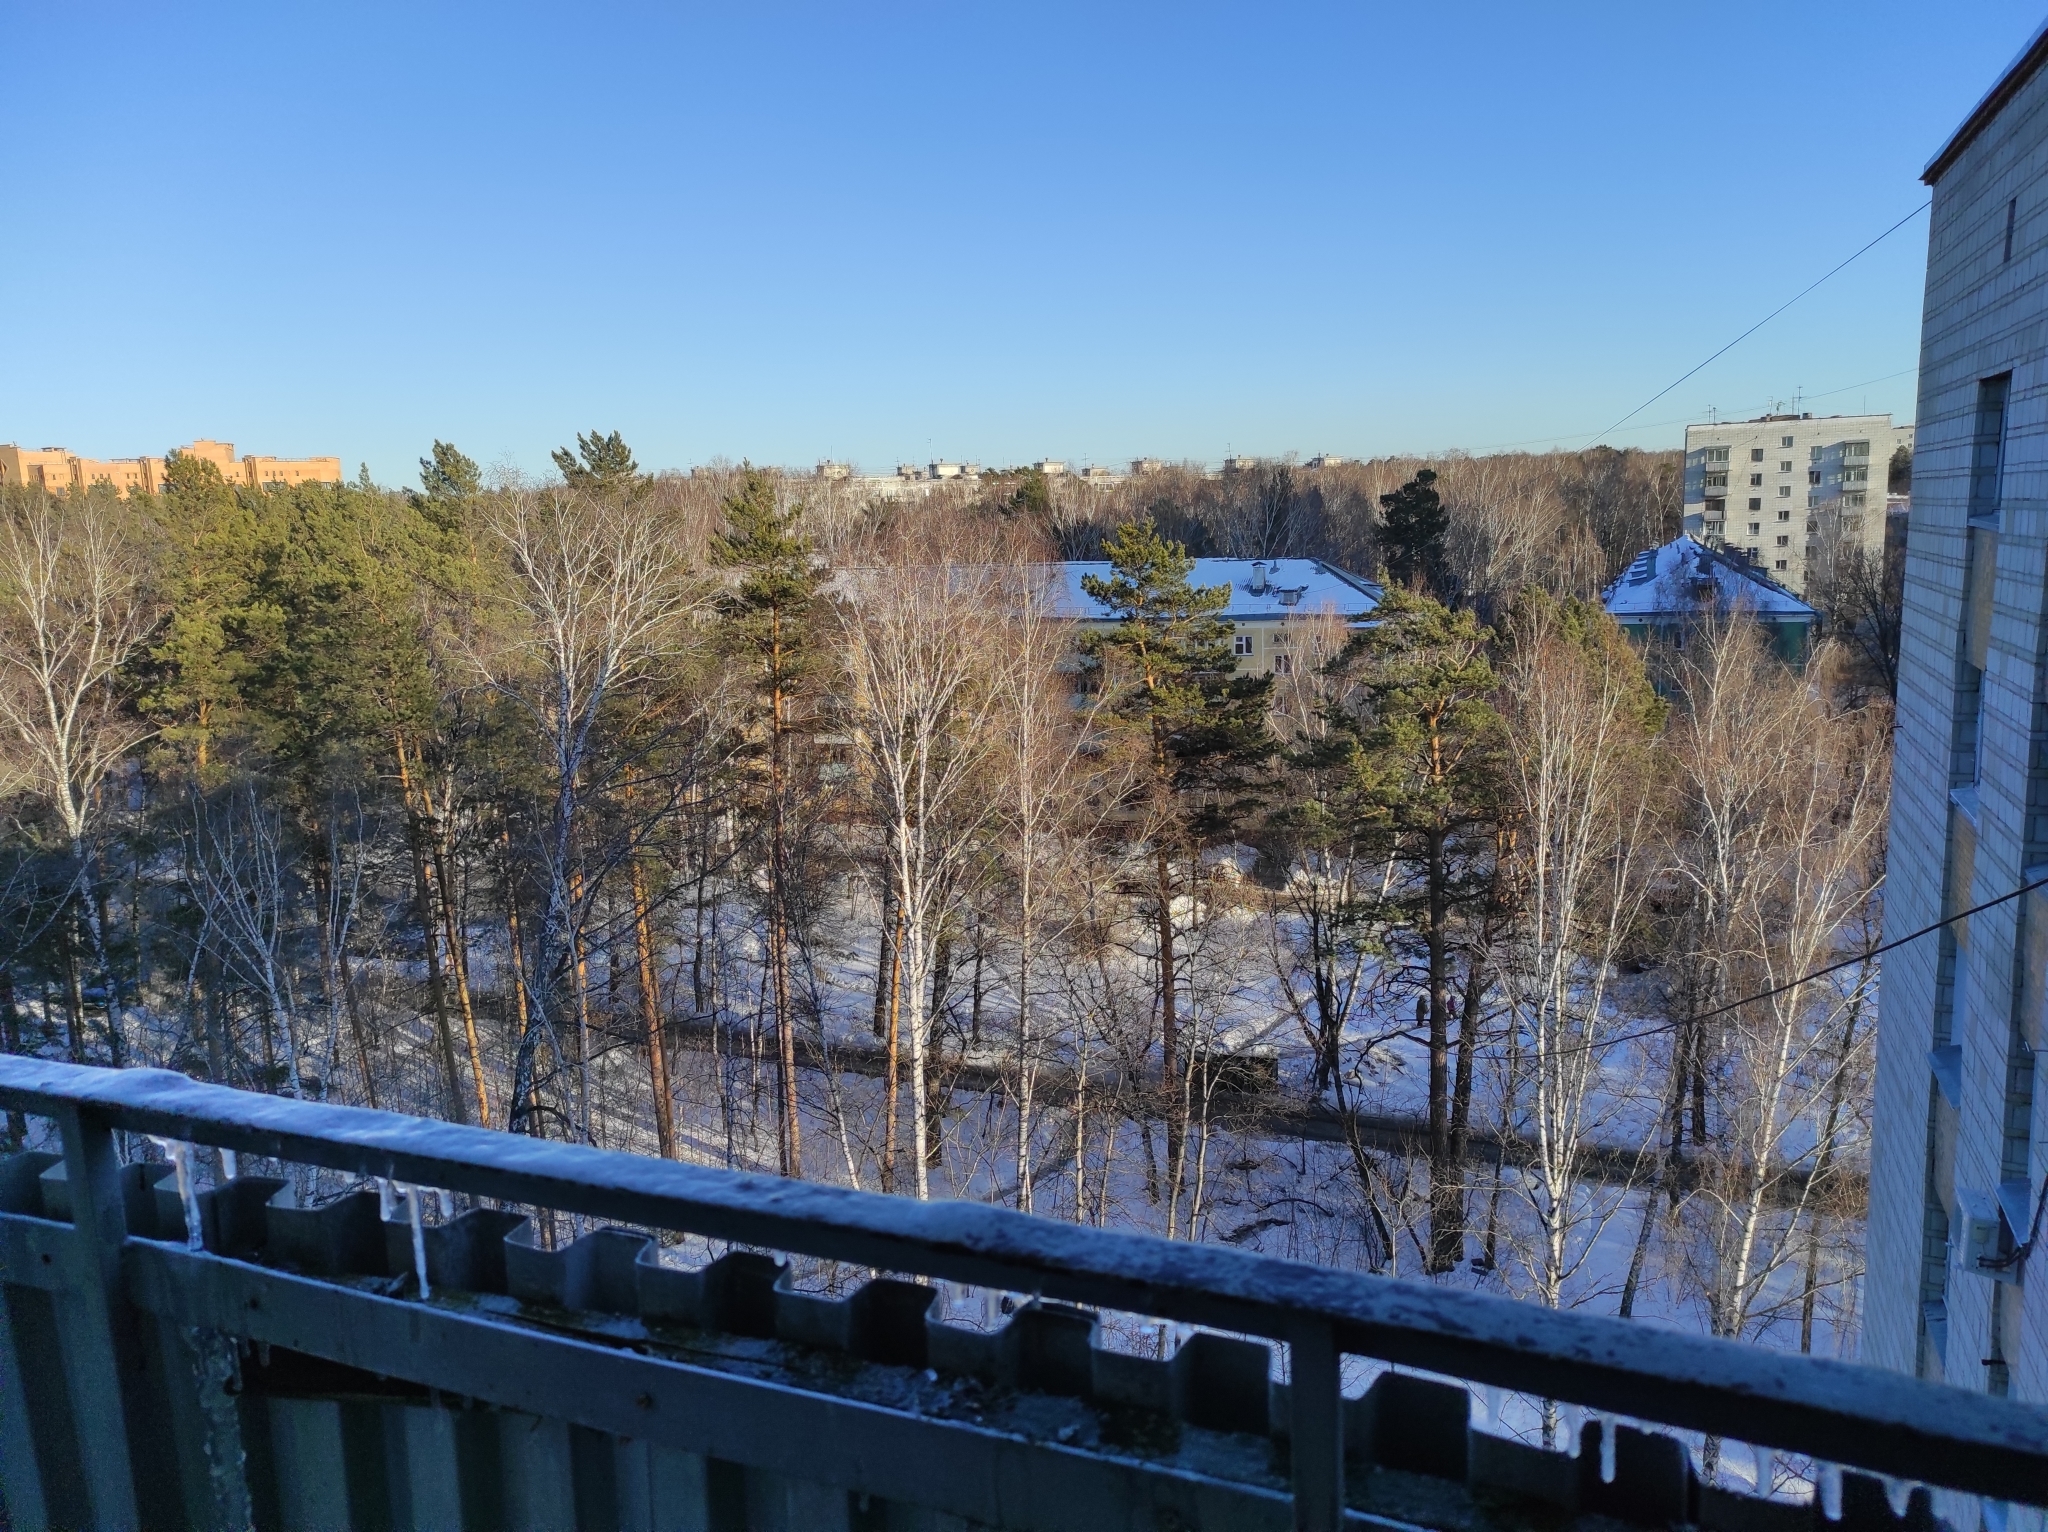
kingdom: Plantae
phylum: Tracheophyta
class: Pinopsida
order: Pinales
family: Pinaceae
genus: Pinus
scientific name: Pinus sylvestris
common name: Scots pine
